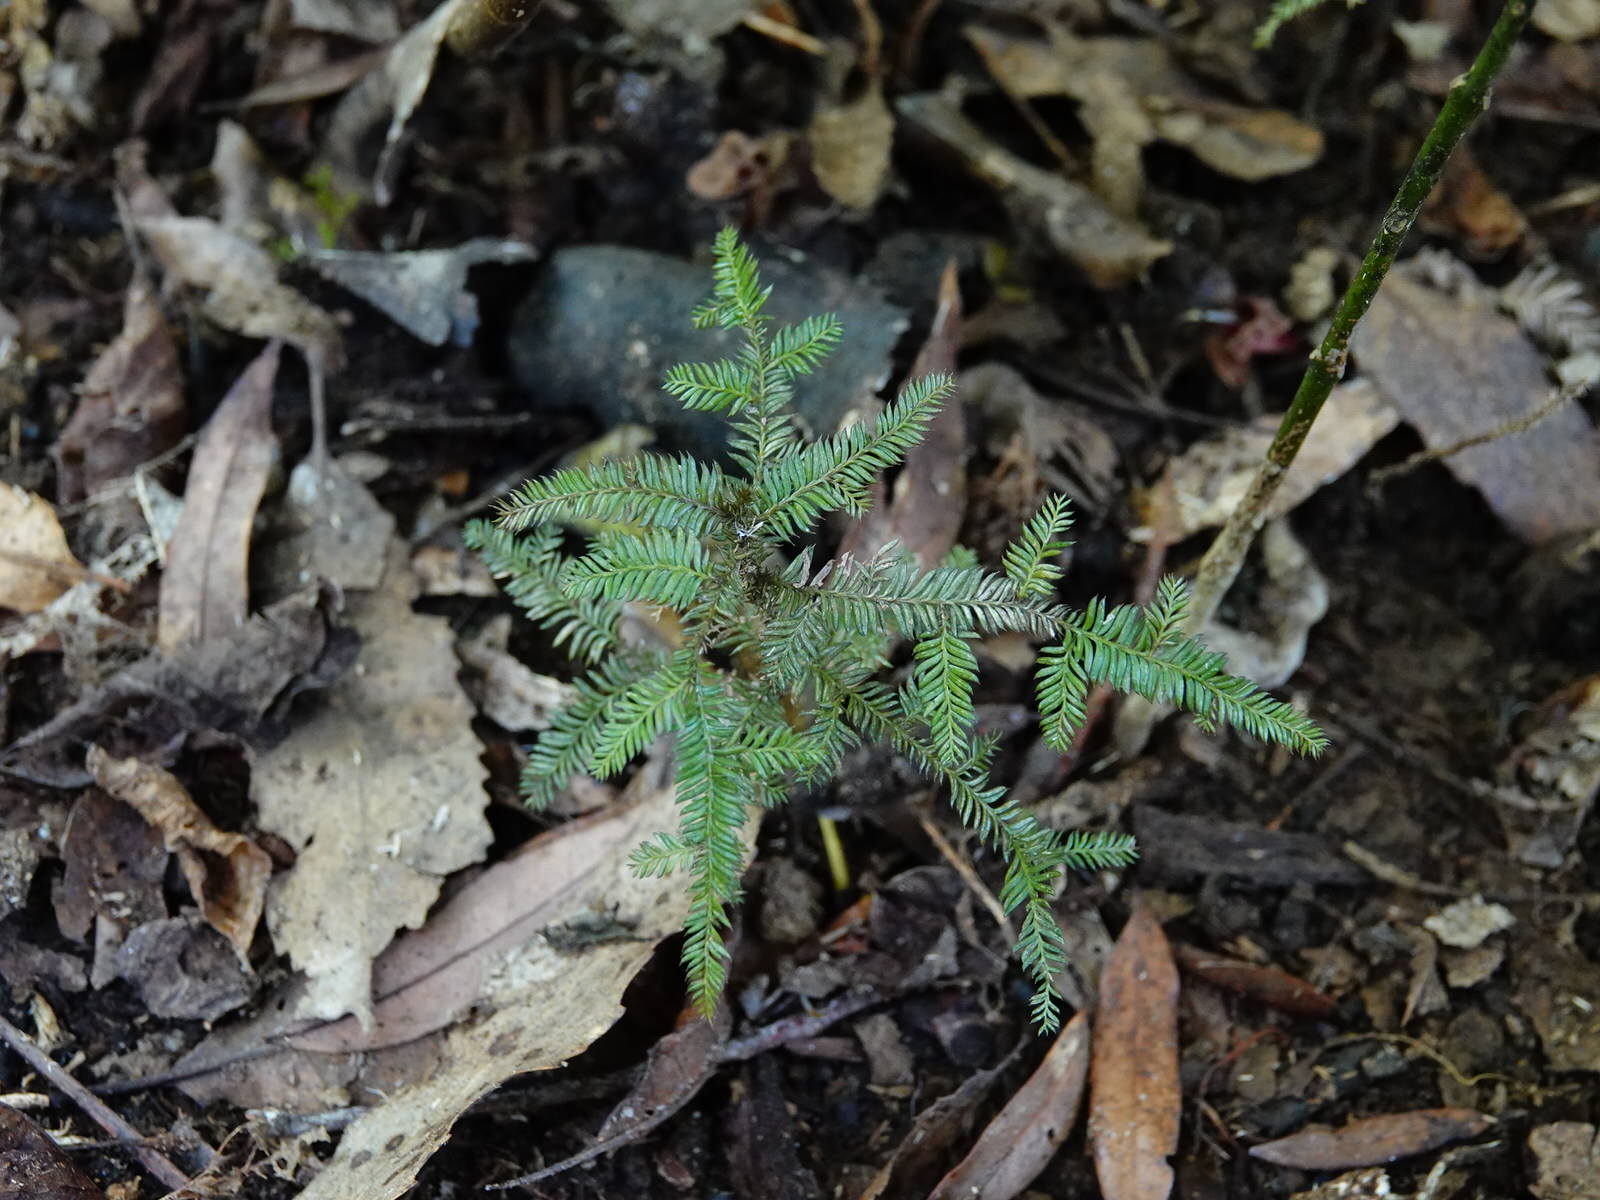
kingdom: Plantae
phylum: Tracheophyta
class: Pinopsida
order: Pinales
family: Podocarpaceae
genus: Dacrycarpus
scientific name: Dacrycarpus dacrydioides
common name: White pine
